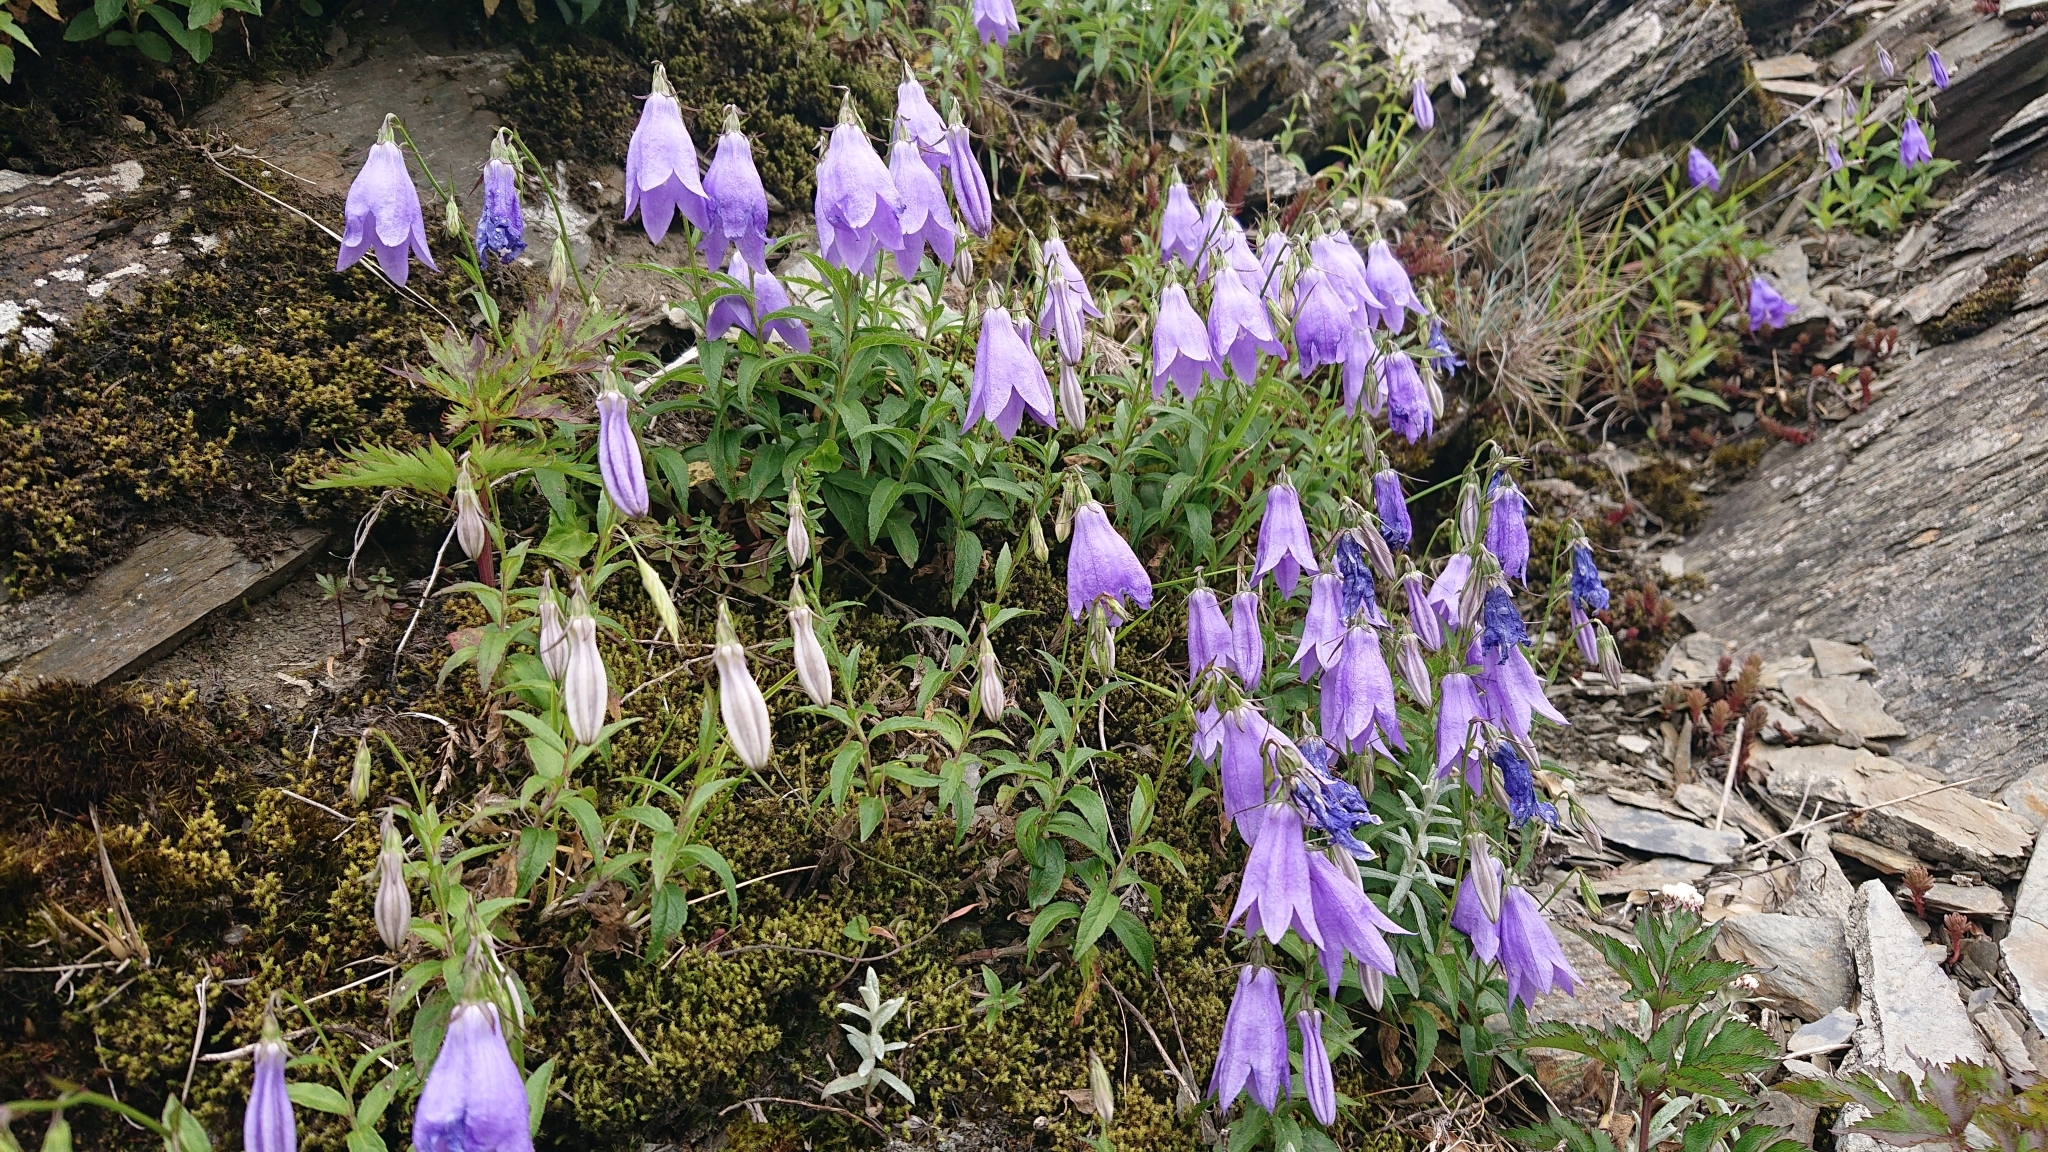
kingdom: Plantae
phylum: Tracheophyta
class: Magnoliopsida
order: Asterales
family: Campanulaceae
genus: Adenophora
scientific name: Adenophora morrisonensis
